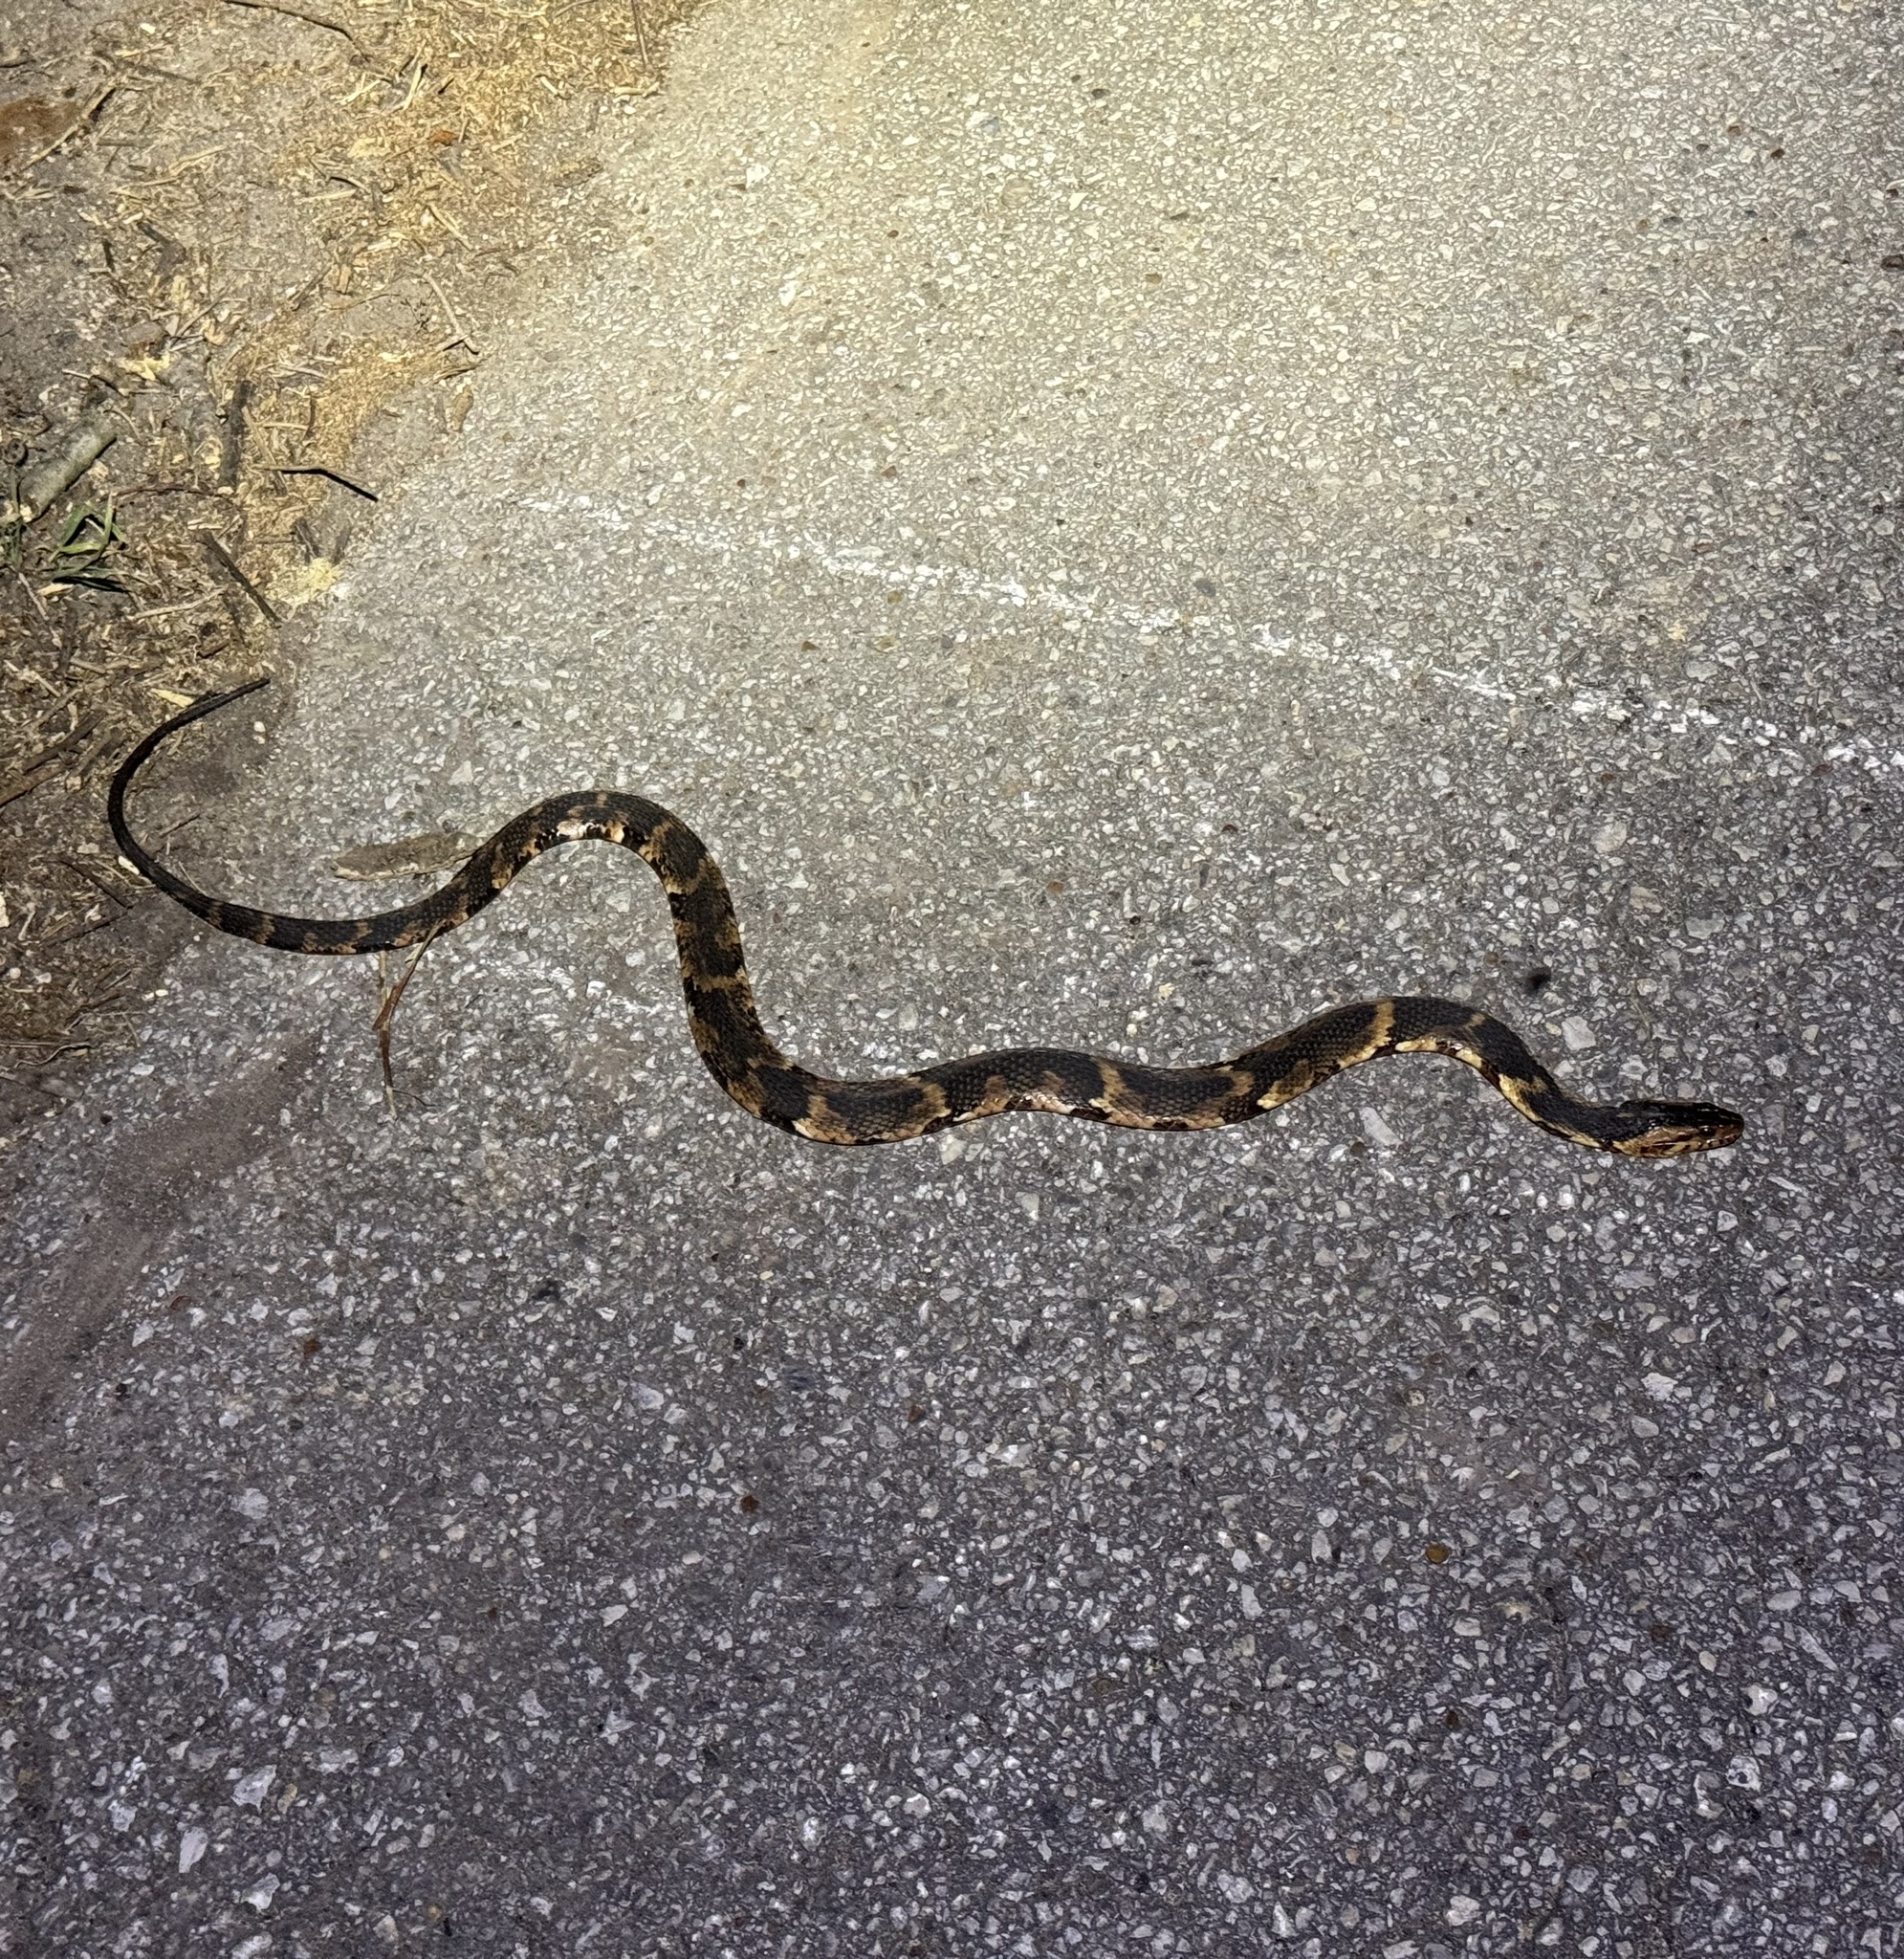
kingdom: Animalia
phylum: Chordata
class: Squamata
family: Colubridae
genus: Nerodia
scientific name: Nerodia fasciata
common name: Southern water snake
